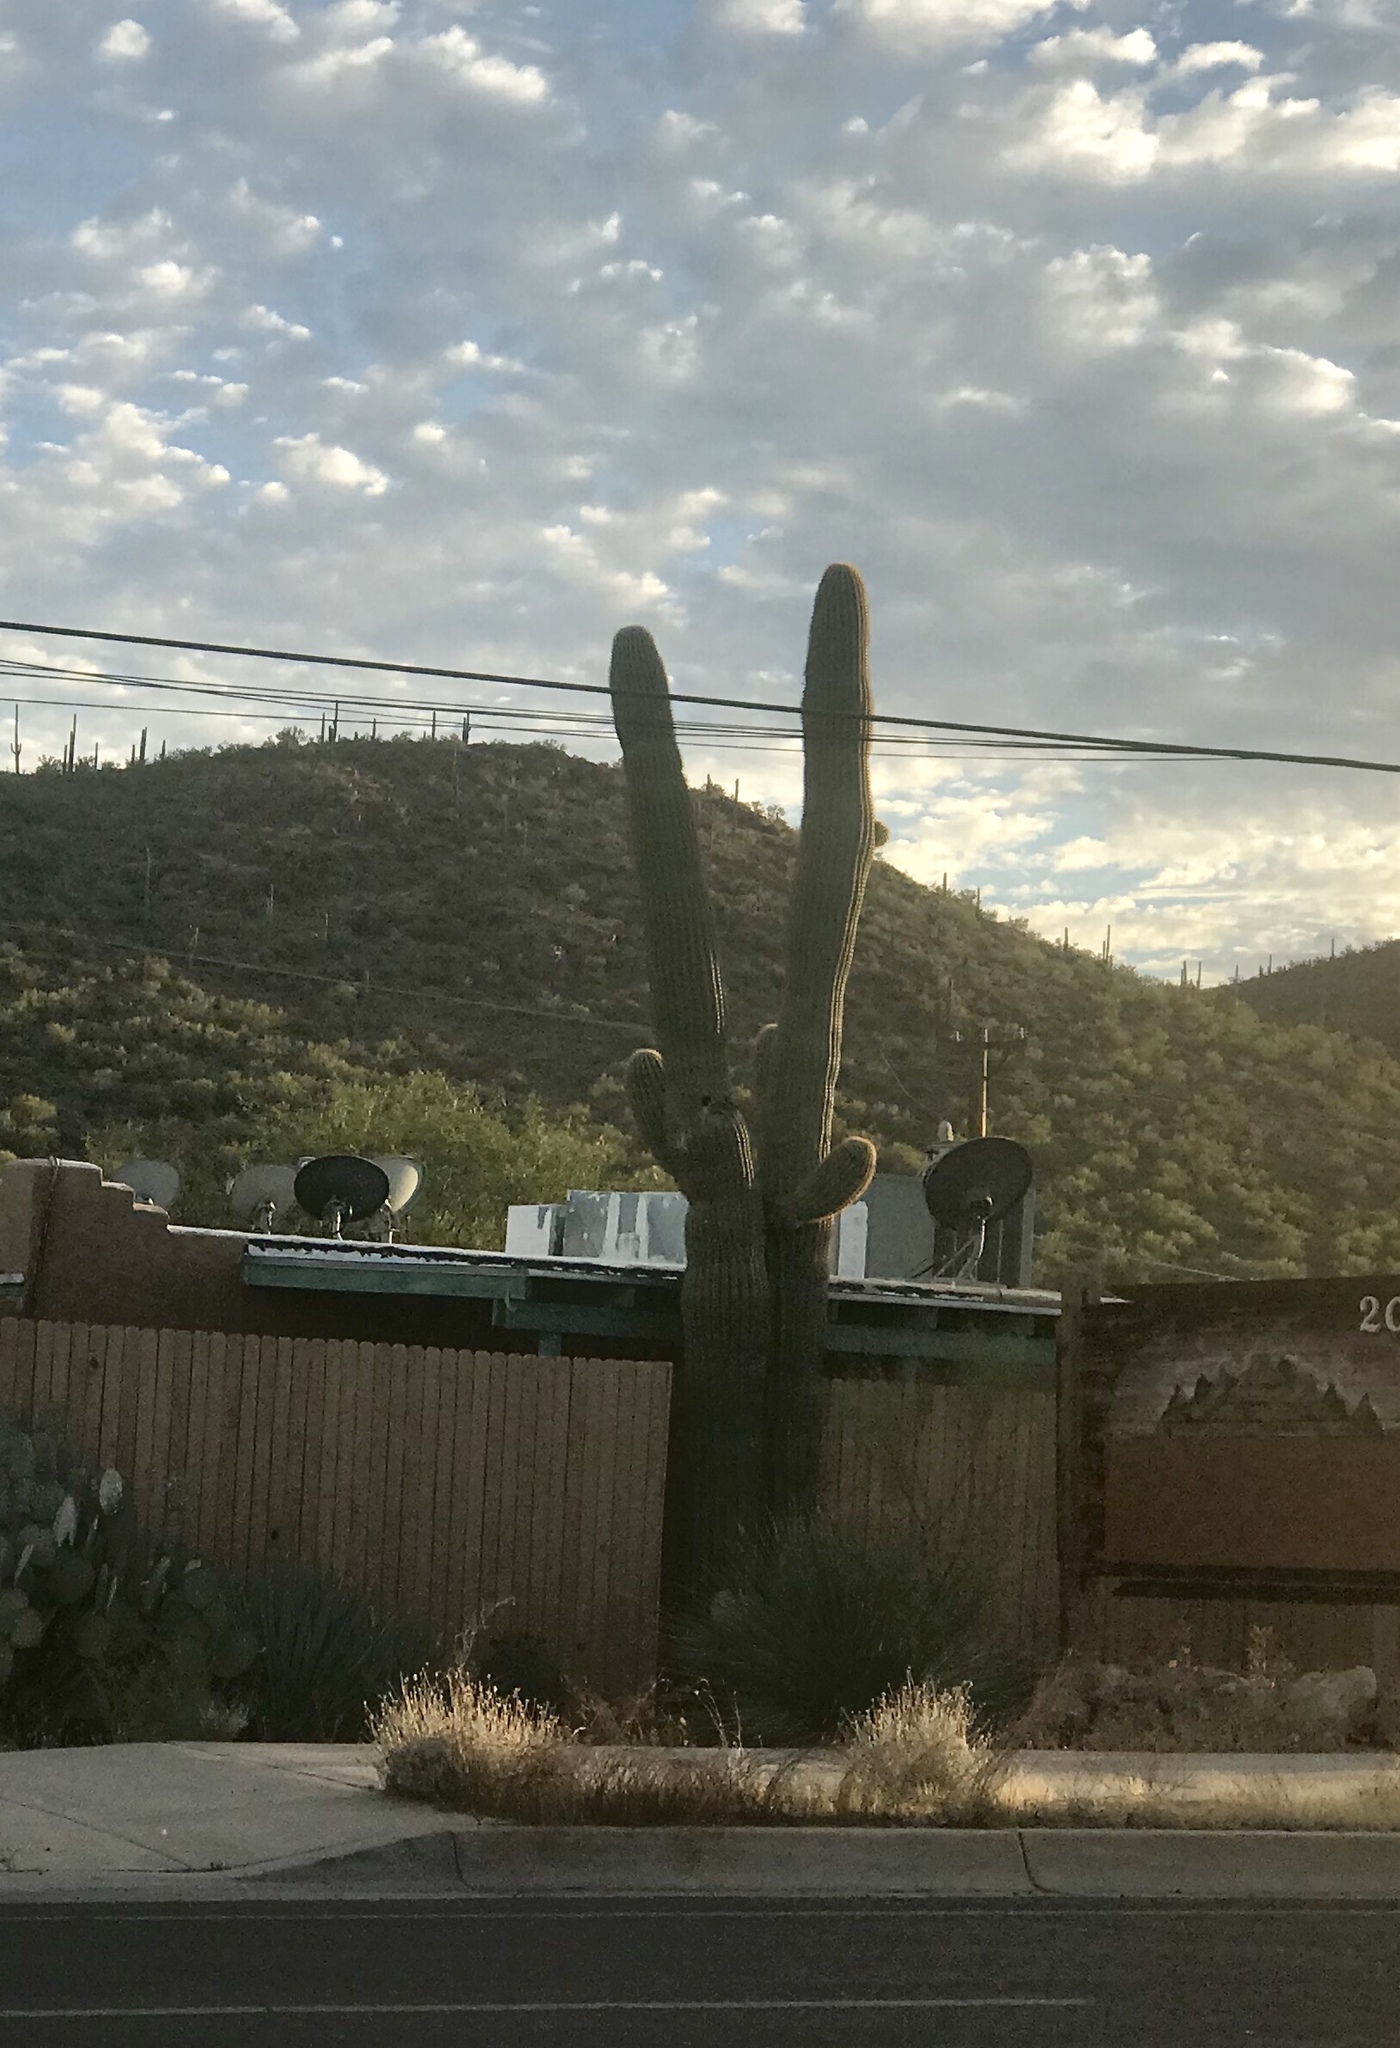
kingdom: Plantae
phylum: Tracheophyta
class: Magnoliopsida
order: Caryophyllales
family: Cactaceae
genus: Carnegiea
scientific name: Carnegiea gigantea
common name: Saguaro
